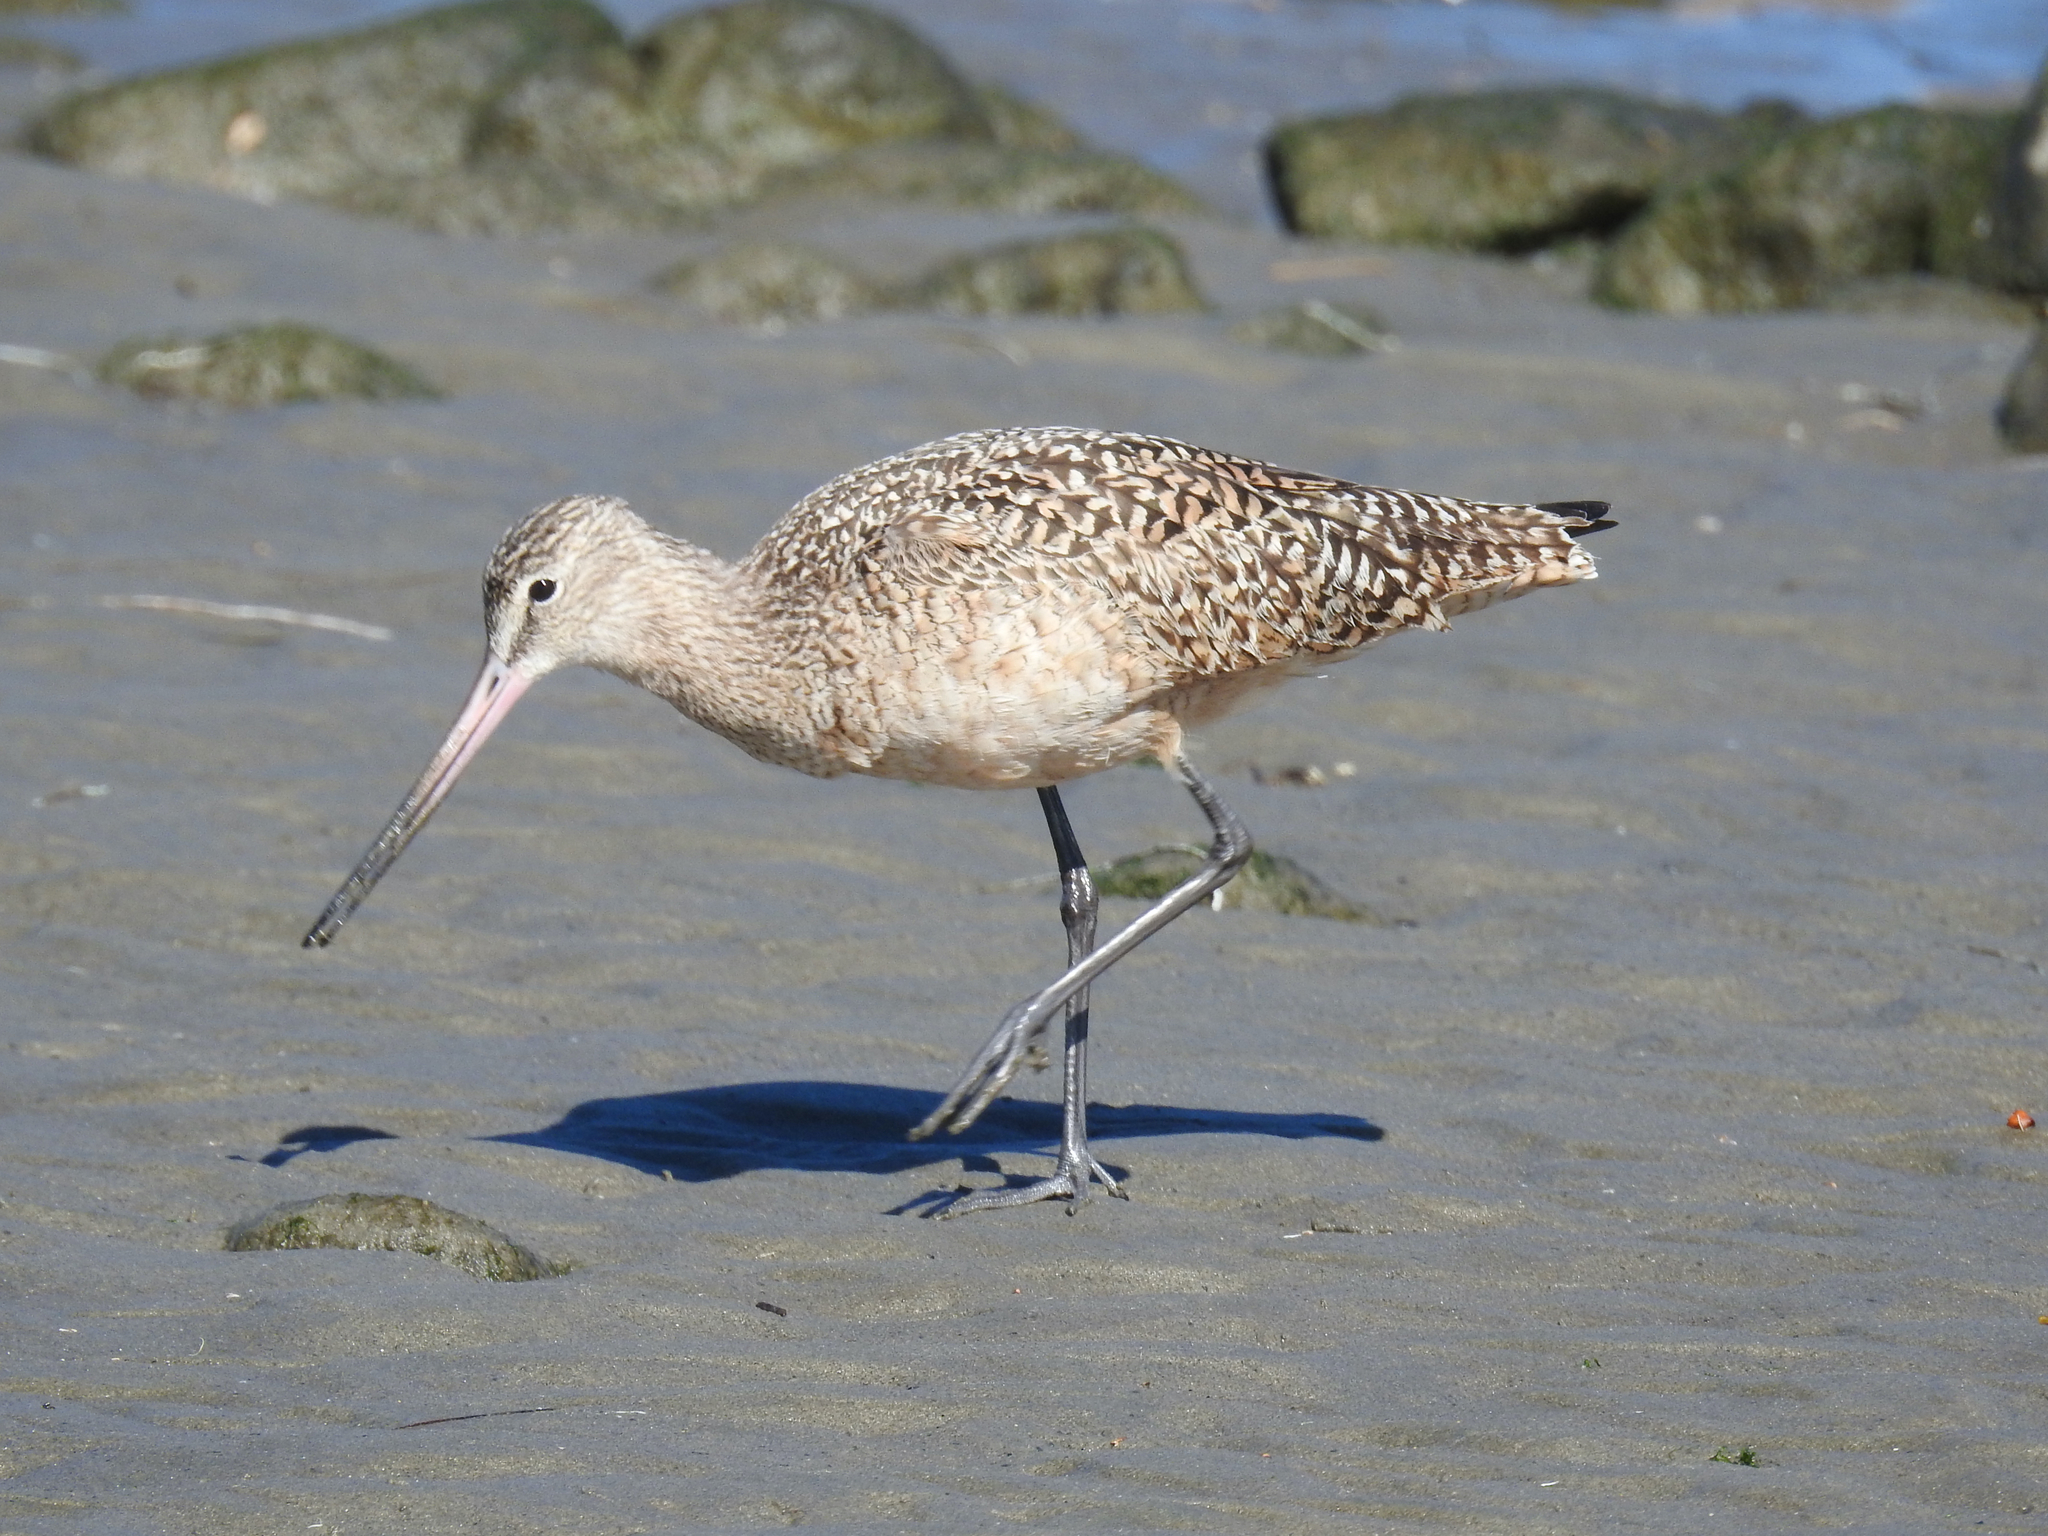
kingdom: Animalia
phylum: Chordata
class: Aves
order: Charadriiformes
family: Scolopacidae
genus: Limosa
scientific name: Limosa fedoa
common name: Marbled godwit
